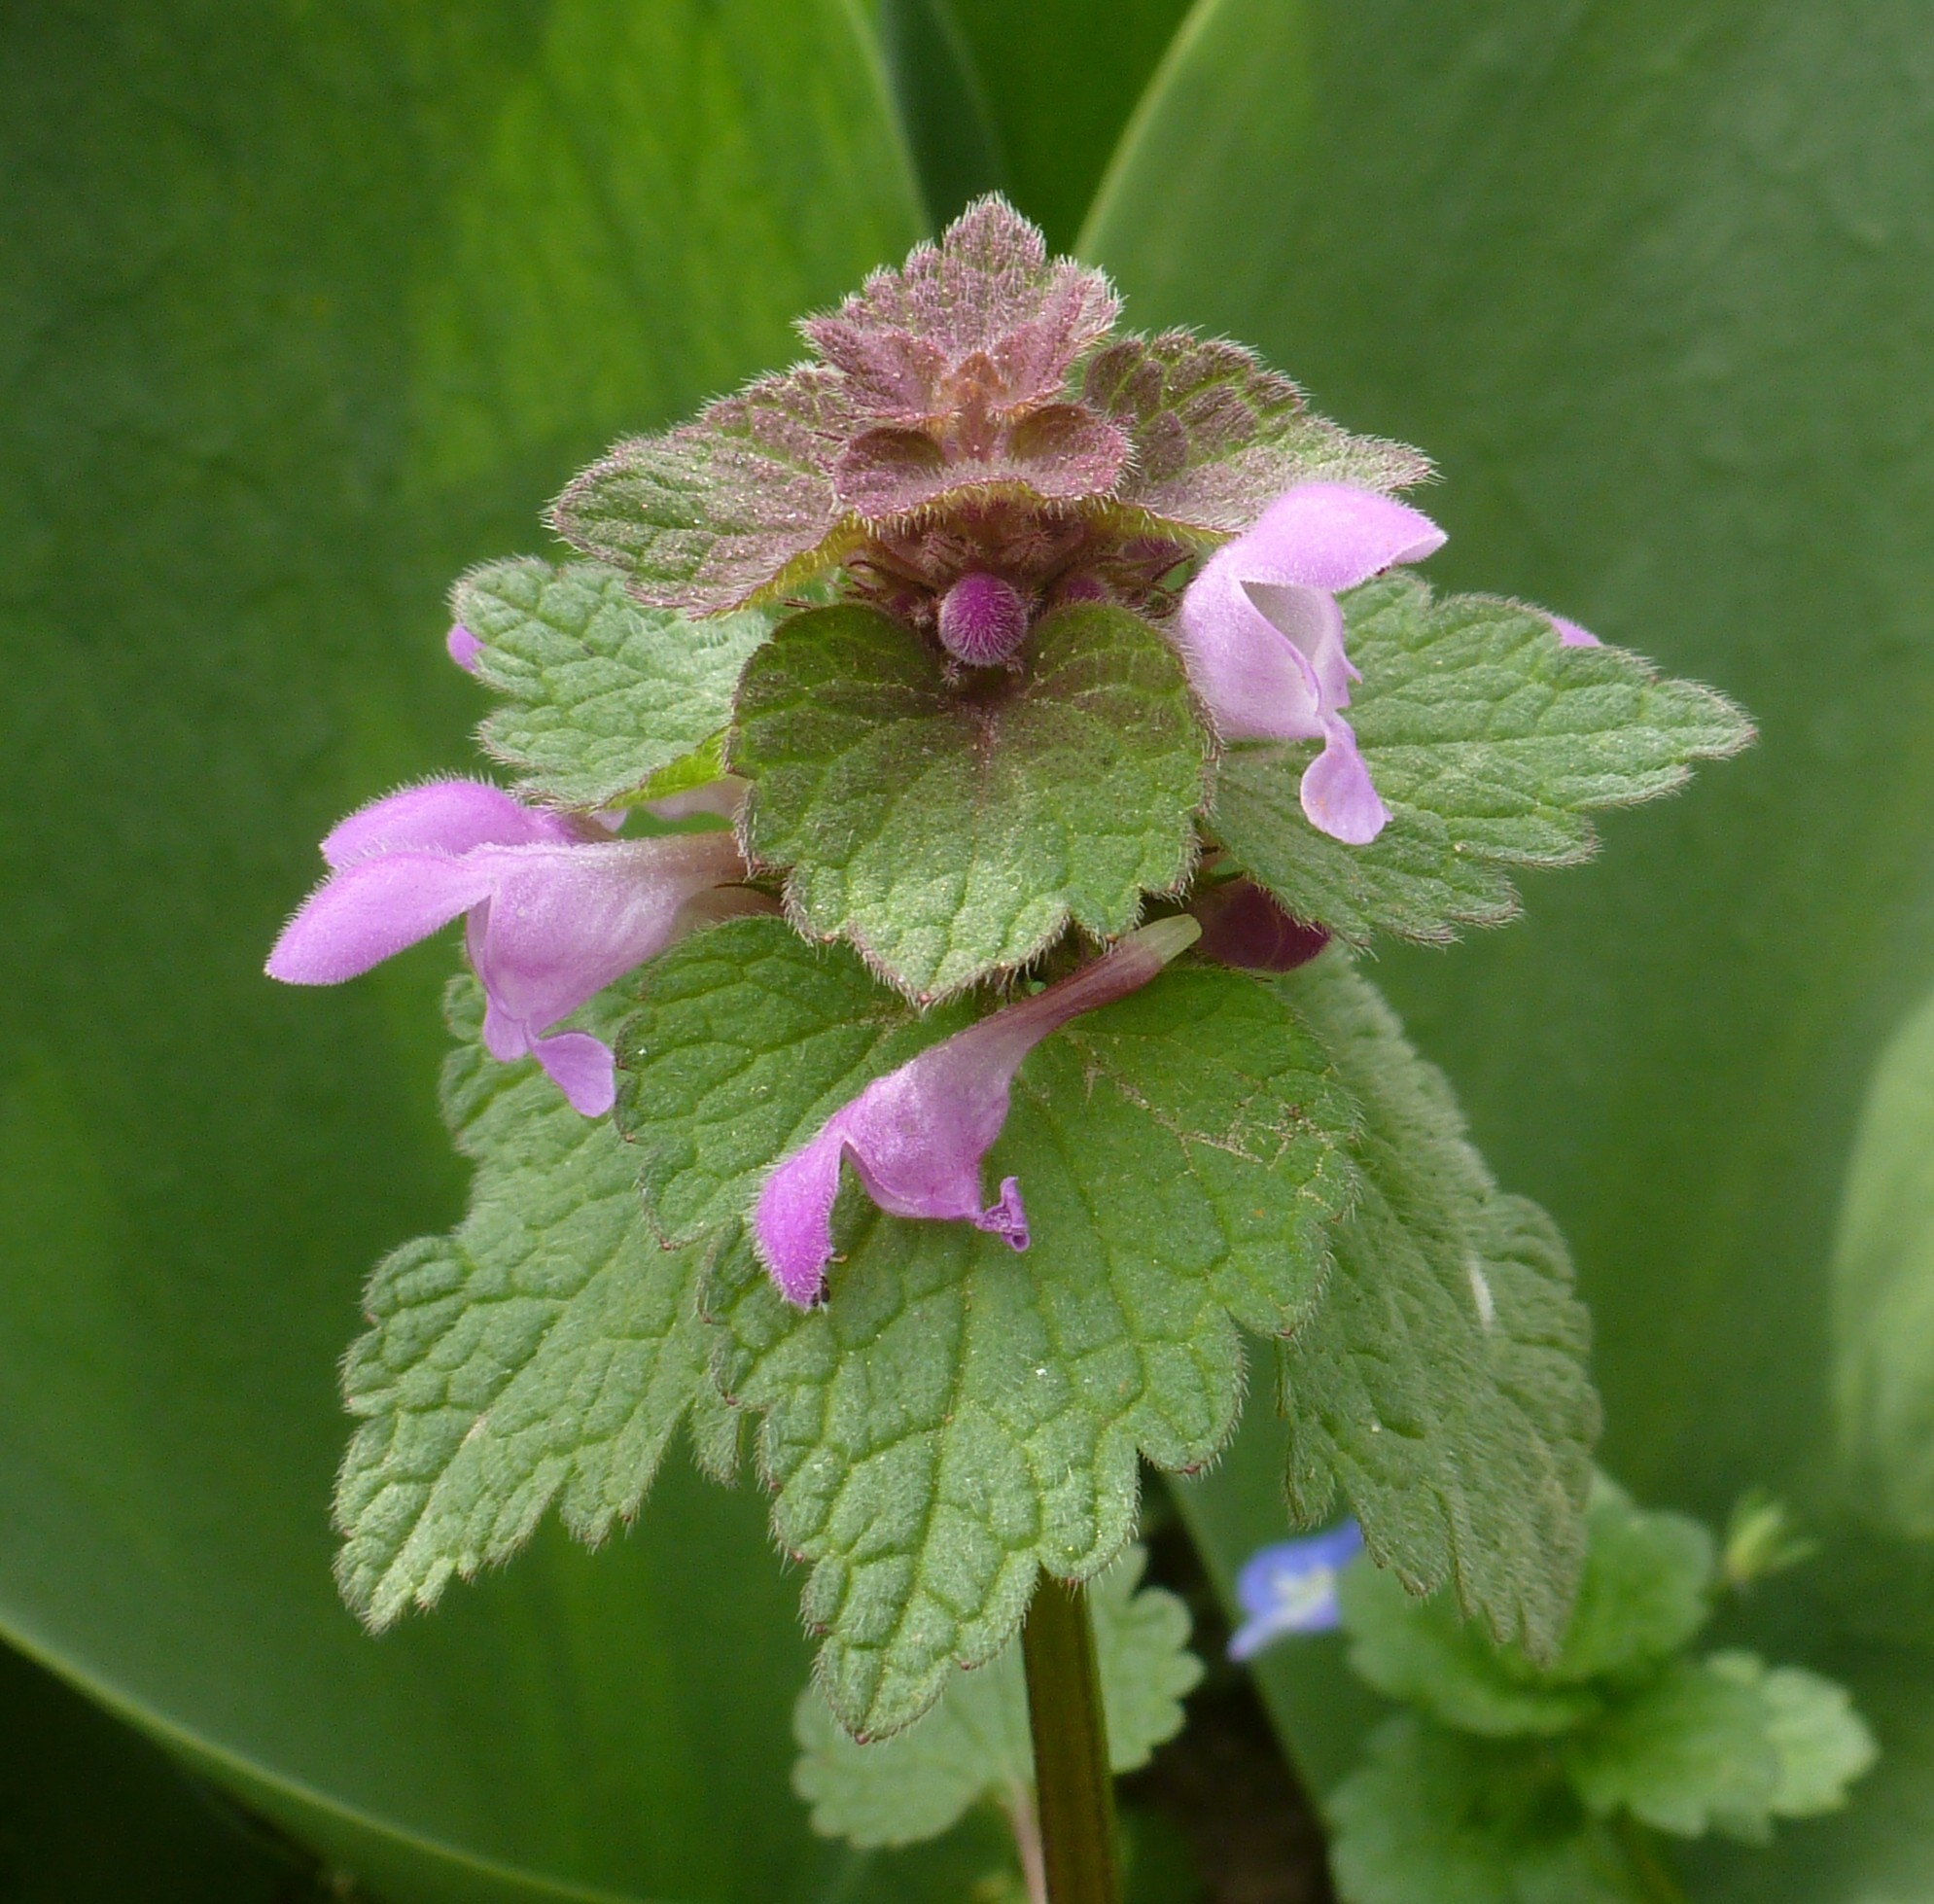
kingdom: Plantae
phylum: Tracheophyta
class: Magnoliopsida
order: Lamiales
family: Lamiaceae
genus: Lamium
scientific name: Lamium purpureum
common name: Red dead-nettle
